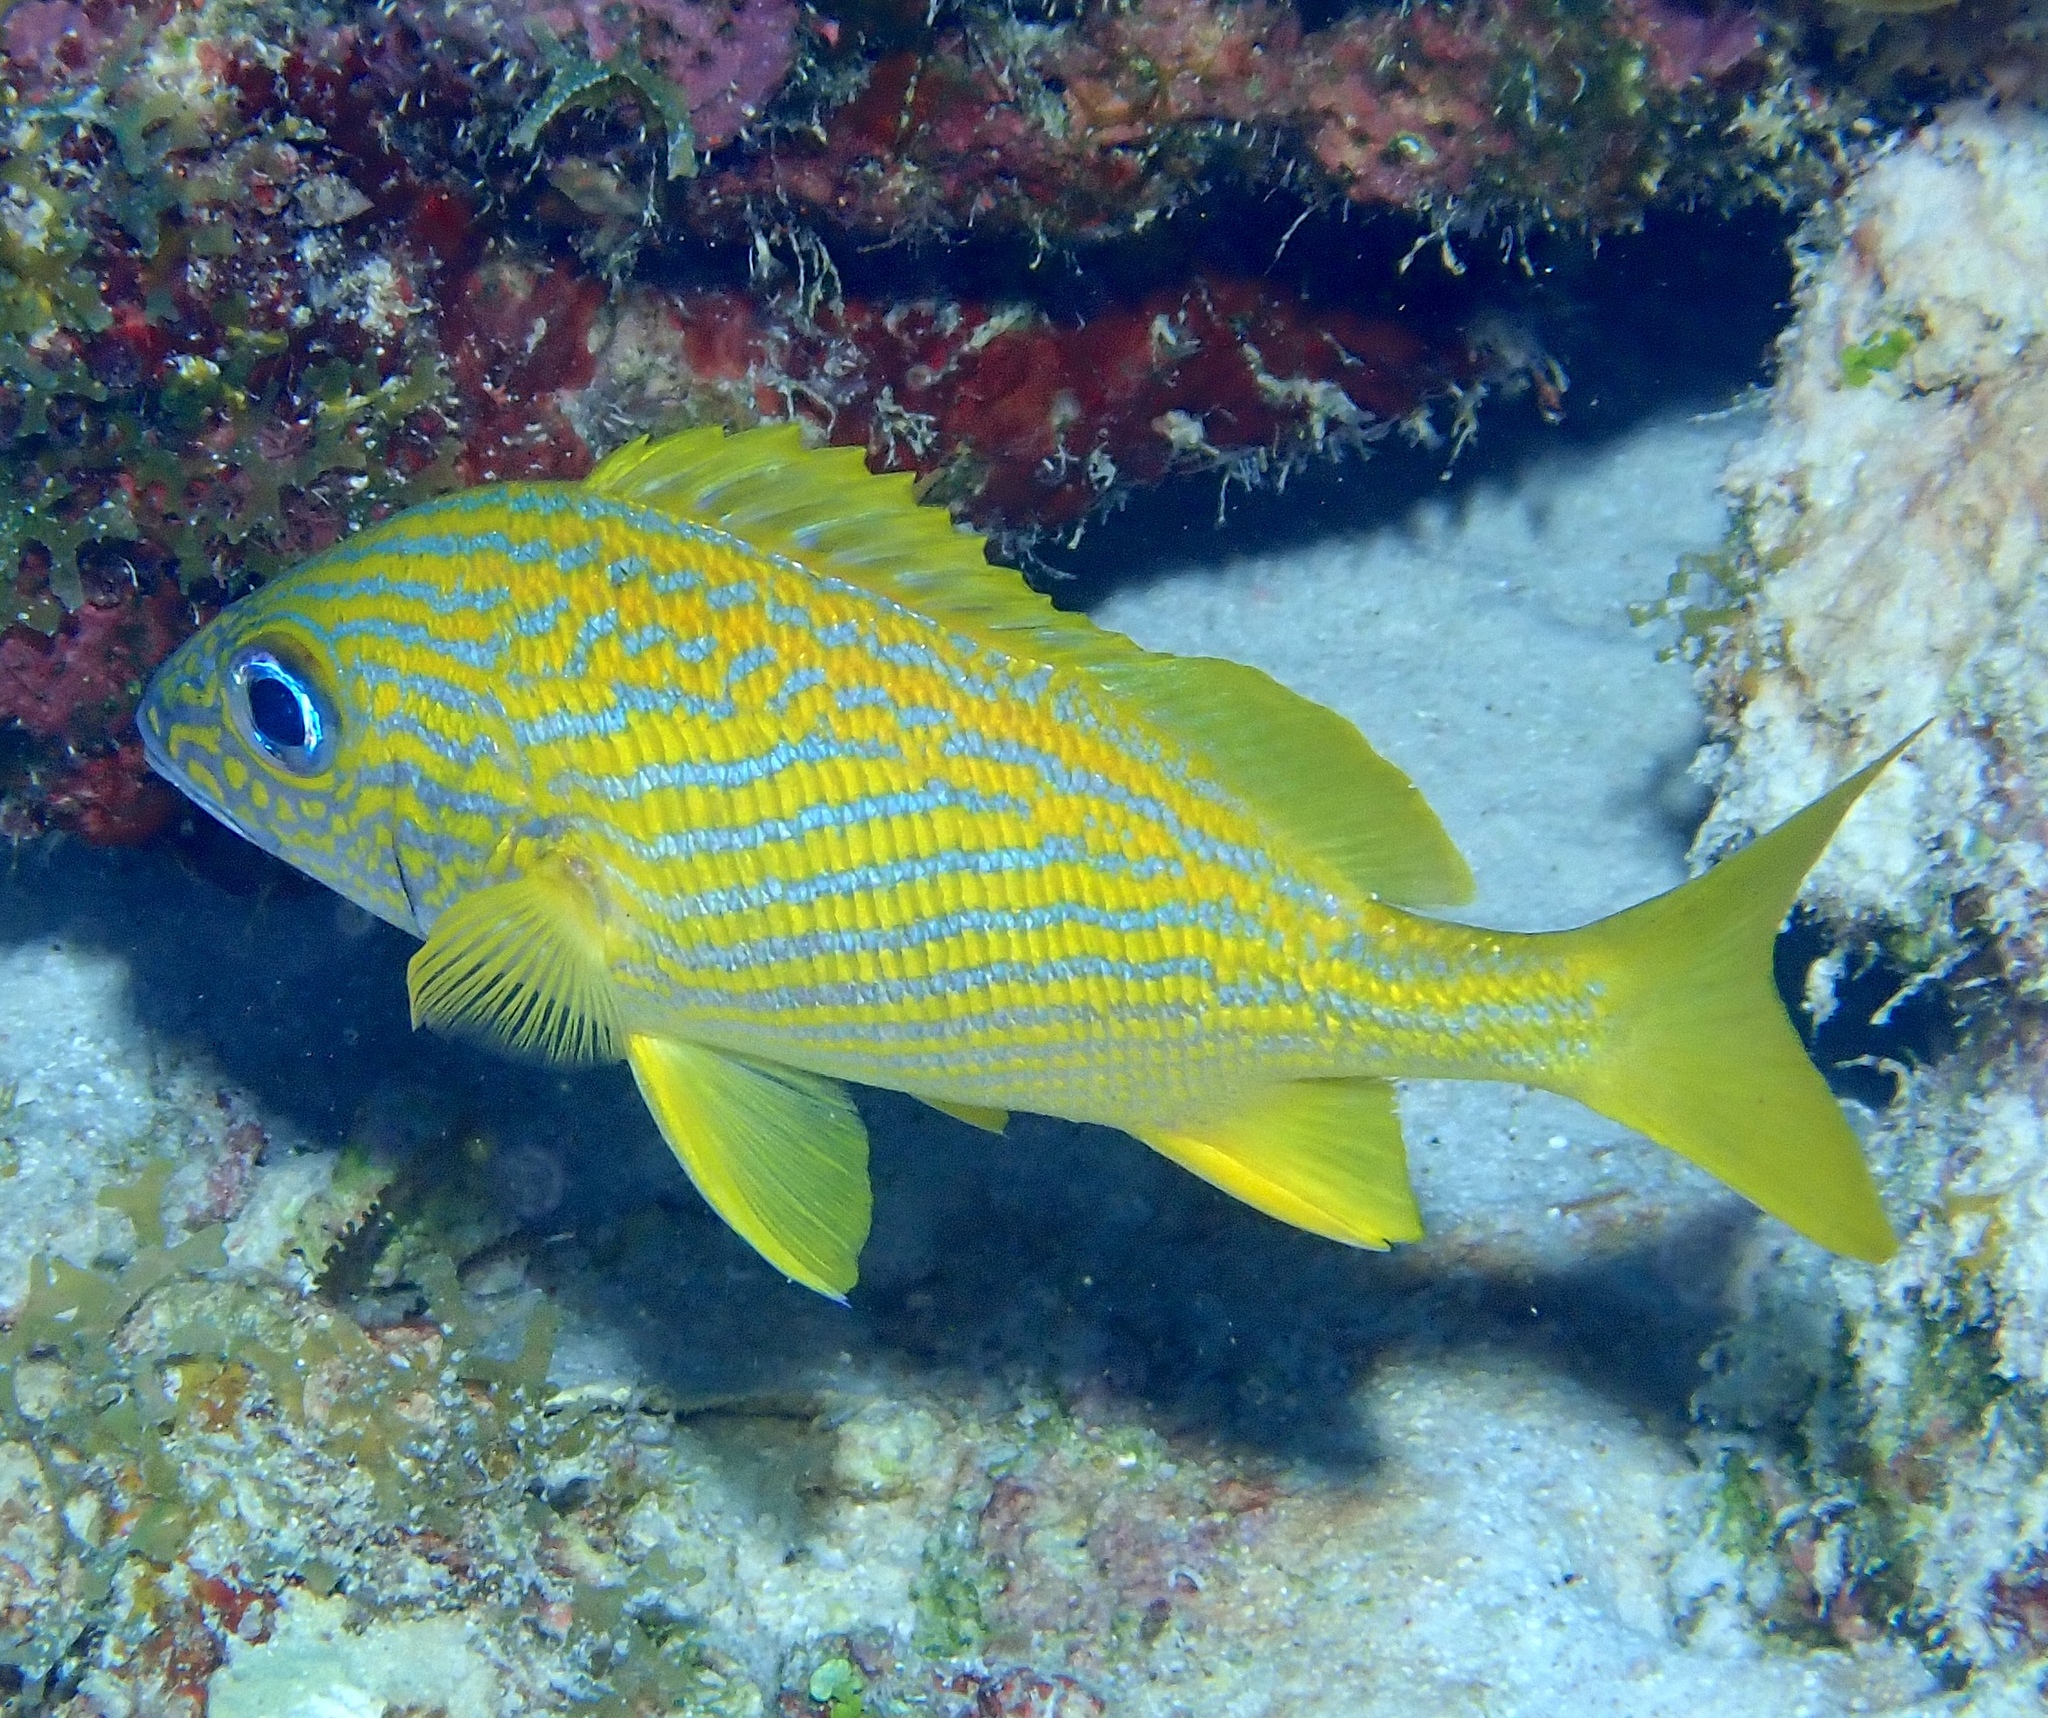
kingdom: Animalia
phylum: Chordata
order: Perciformes
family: Haemulidae
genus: Haemulon
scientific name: Haemulon flavolineatum
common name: French grunt
